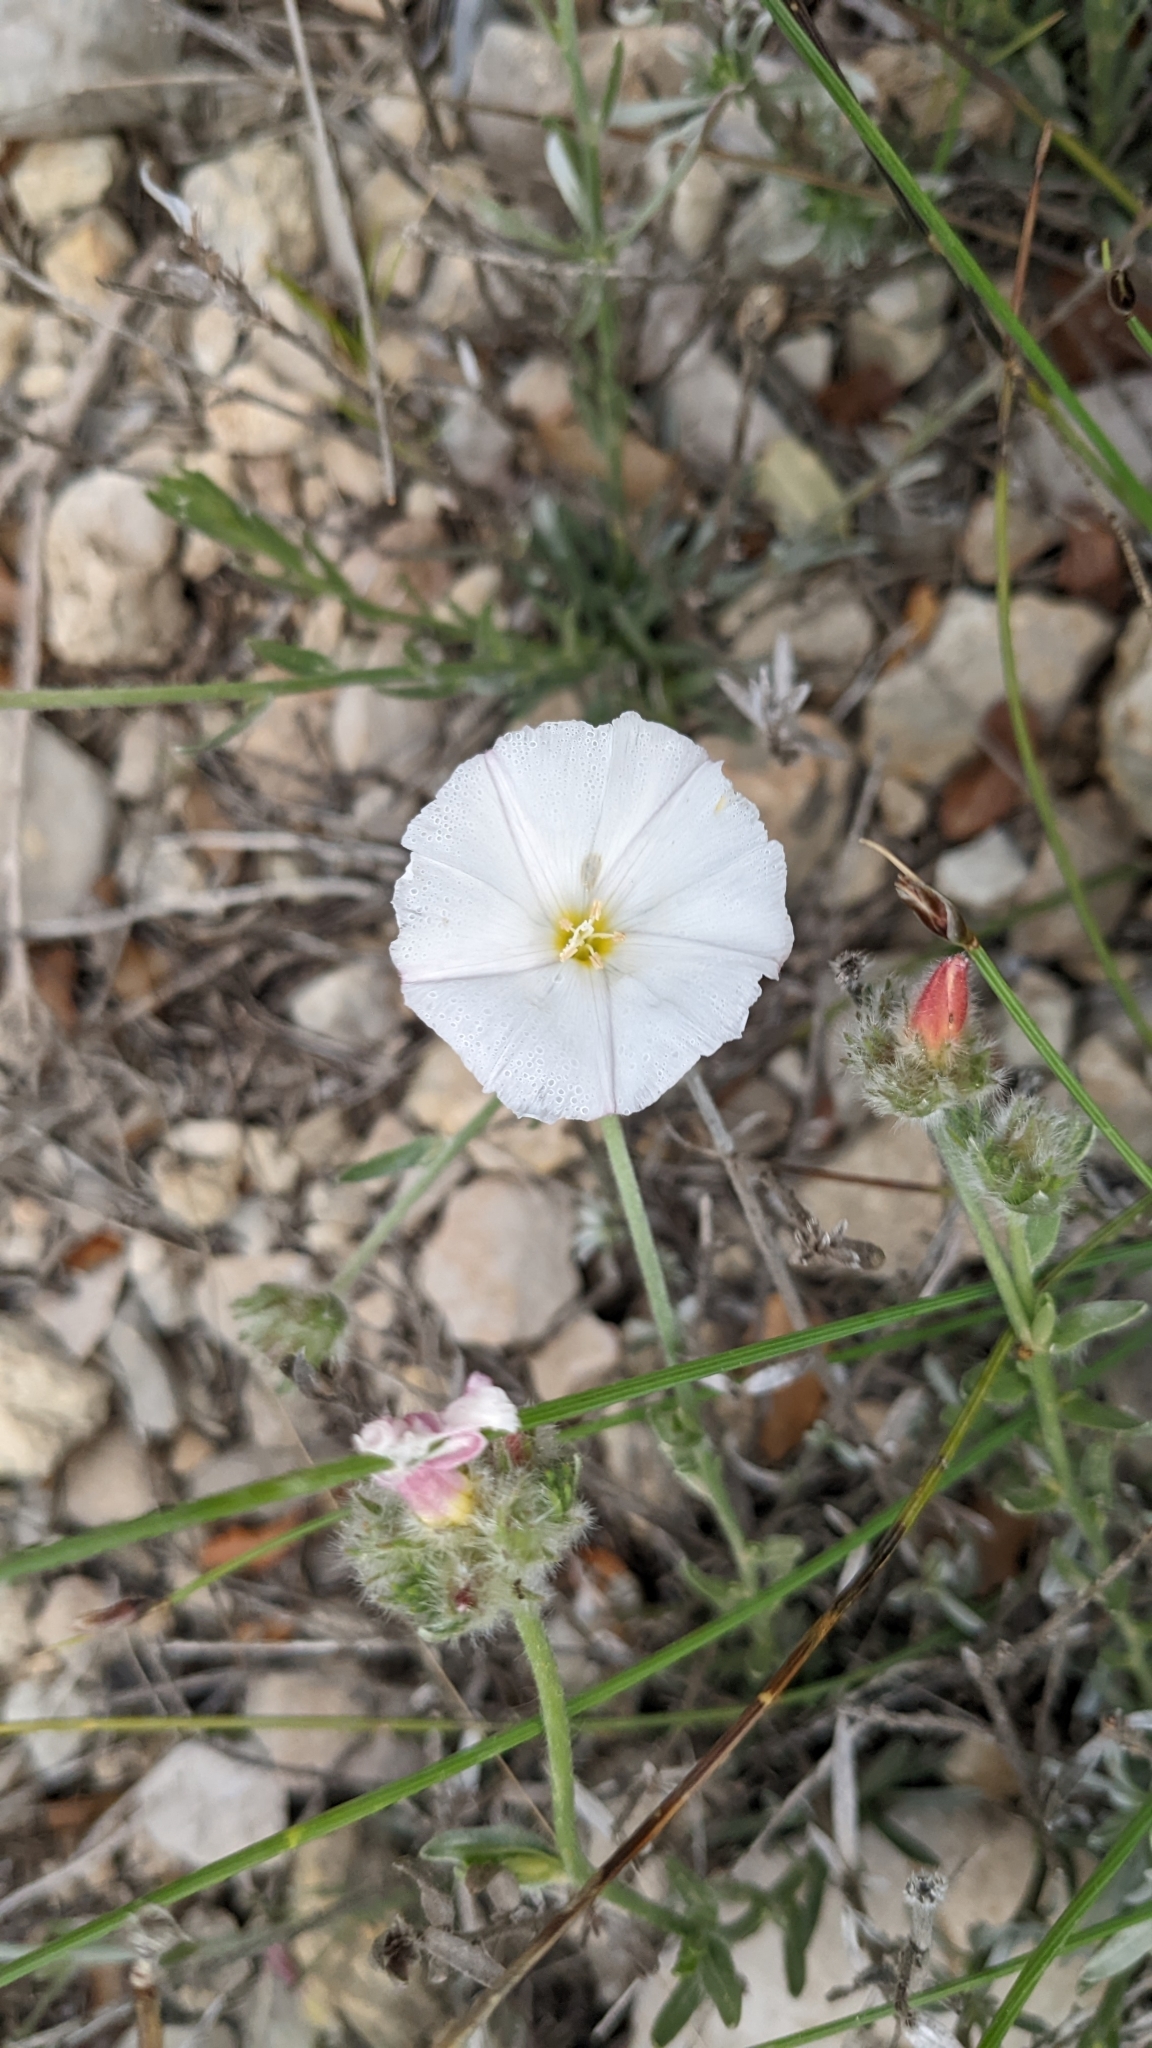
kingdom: Plantae
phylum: Tracheophyta
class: Magnoliopsida
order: Solanales
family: Convolvulaceae
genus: Convolvulus
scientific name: Convolvulus lanuginosus
